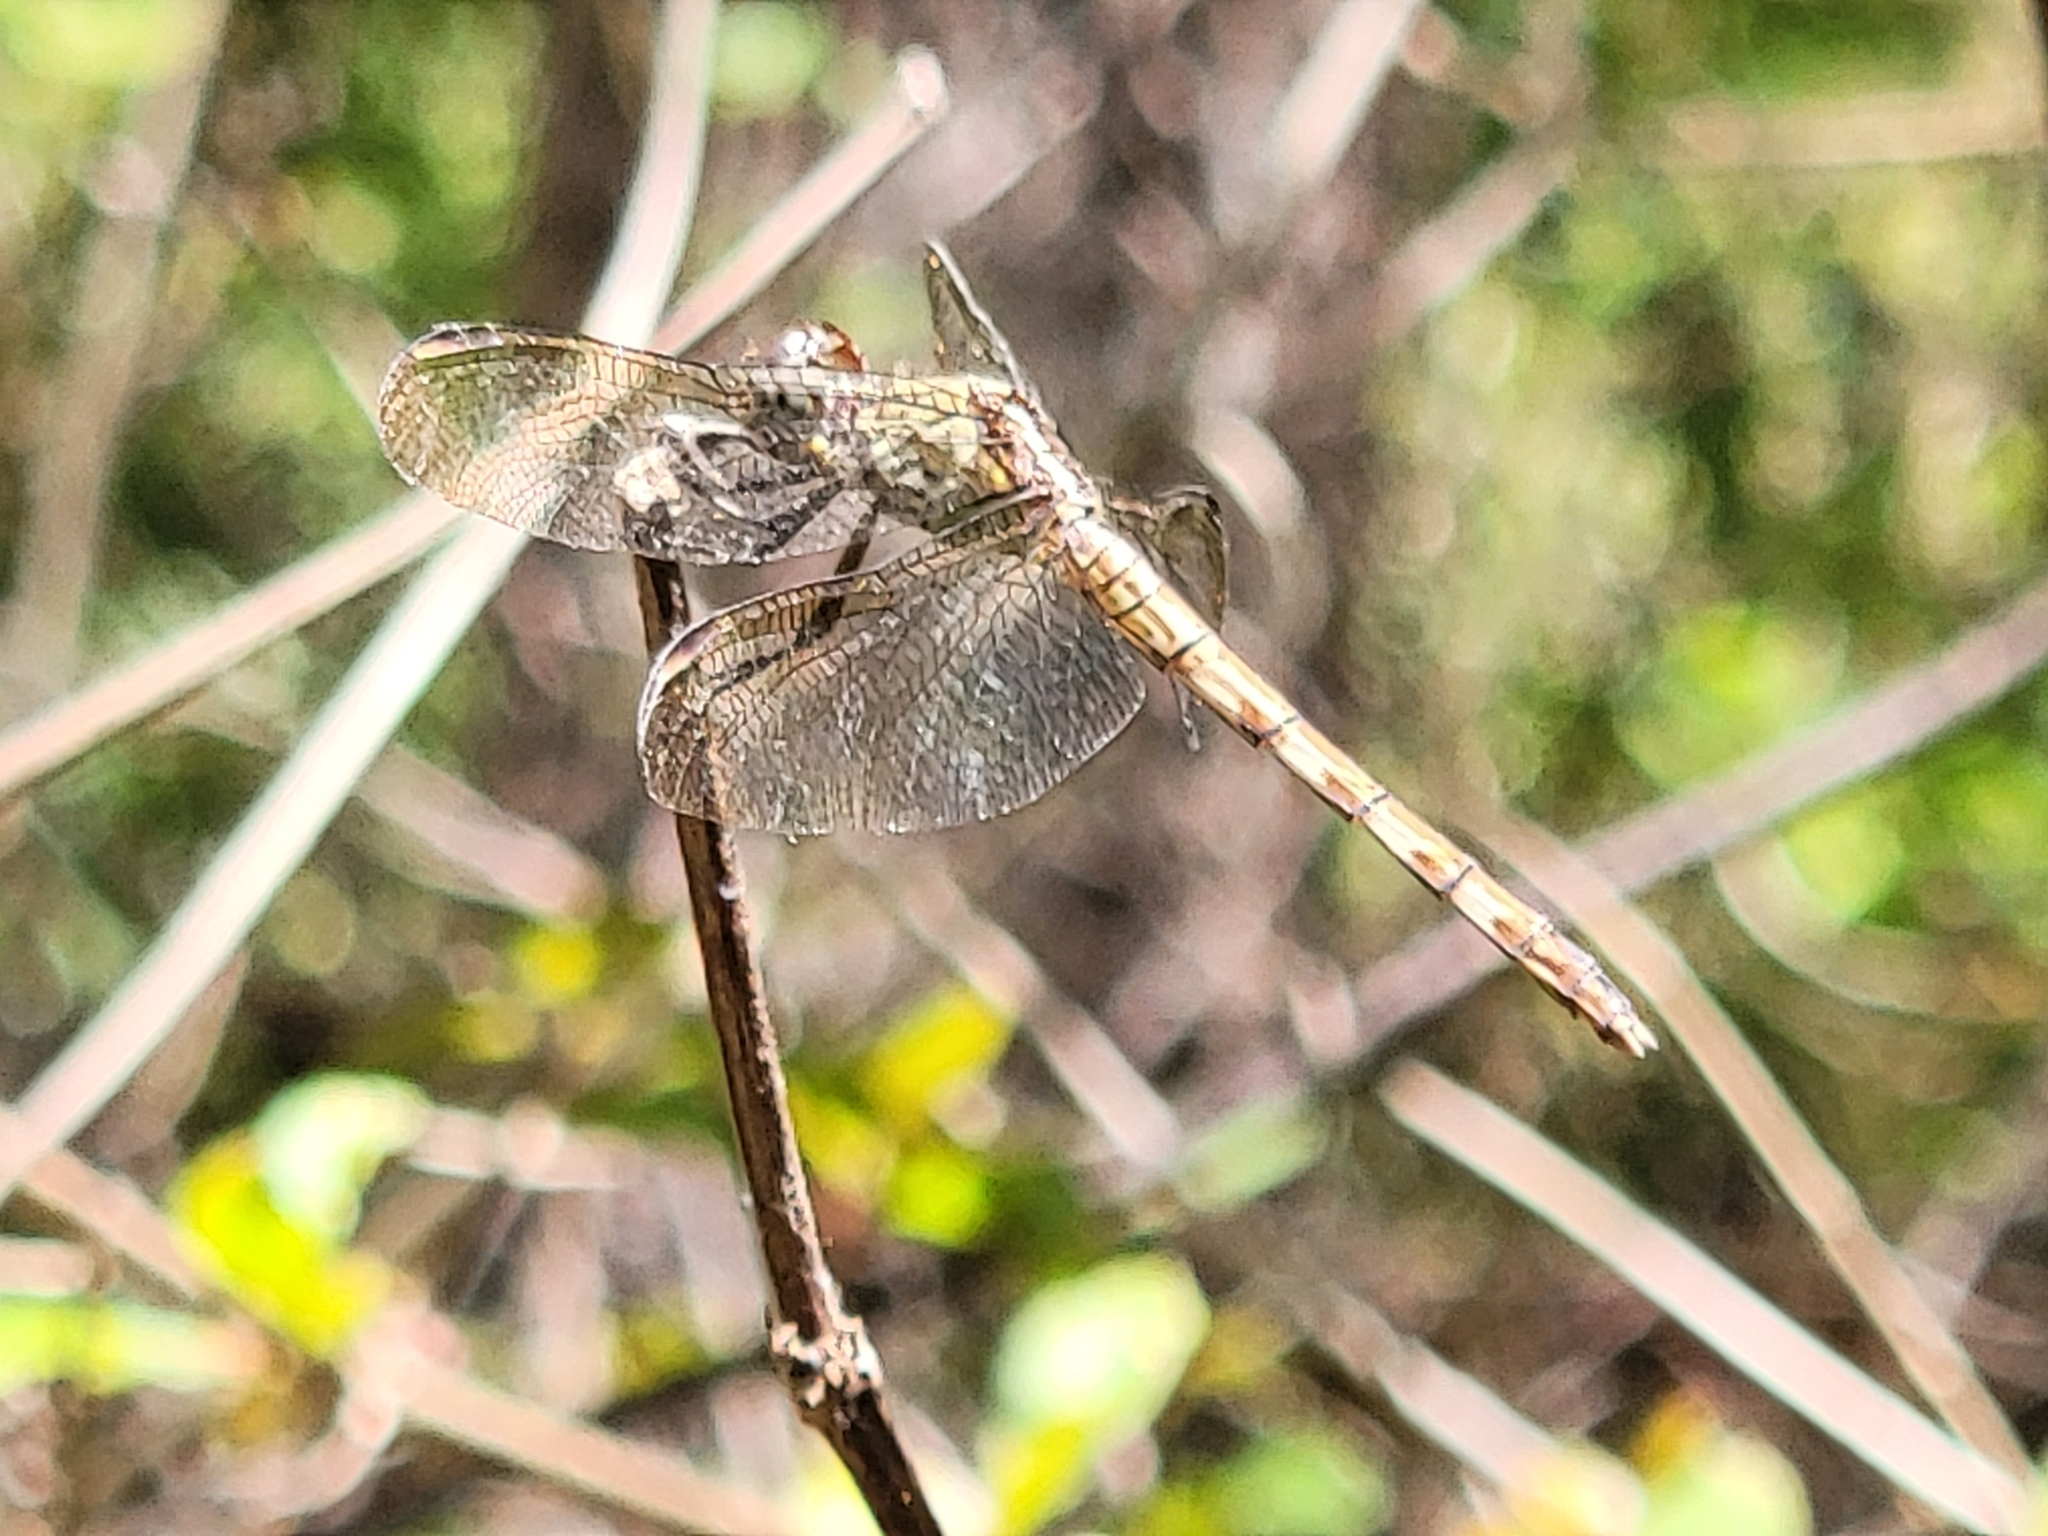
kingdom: Animalia
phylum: Arthropoda
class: Insecta
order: Odonata
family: Libellulidae
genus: Erythrodiplax
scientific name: Erythrodiplax umbrata
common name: Band-winged dragonlet
